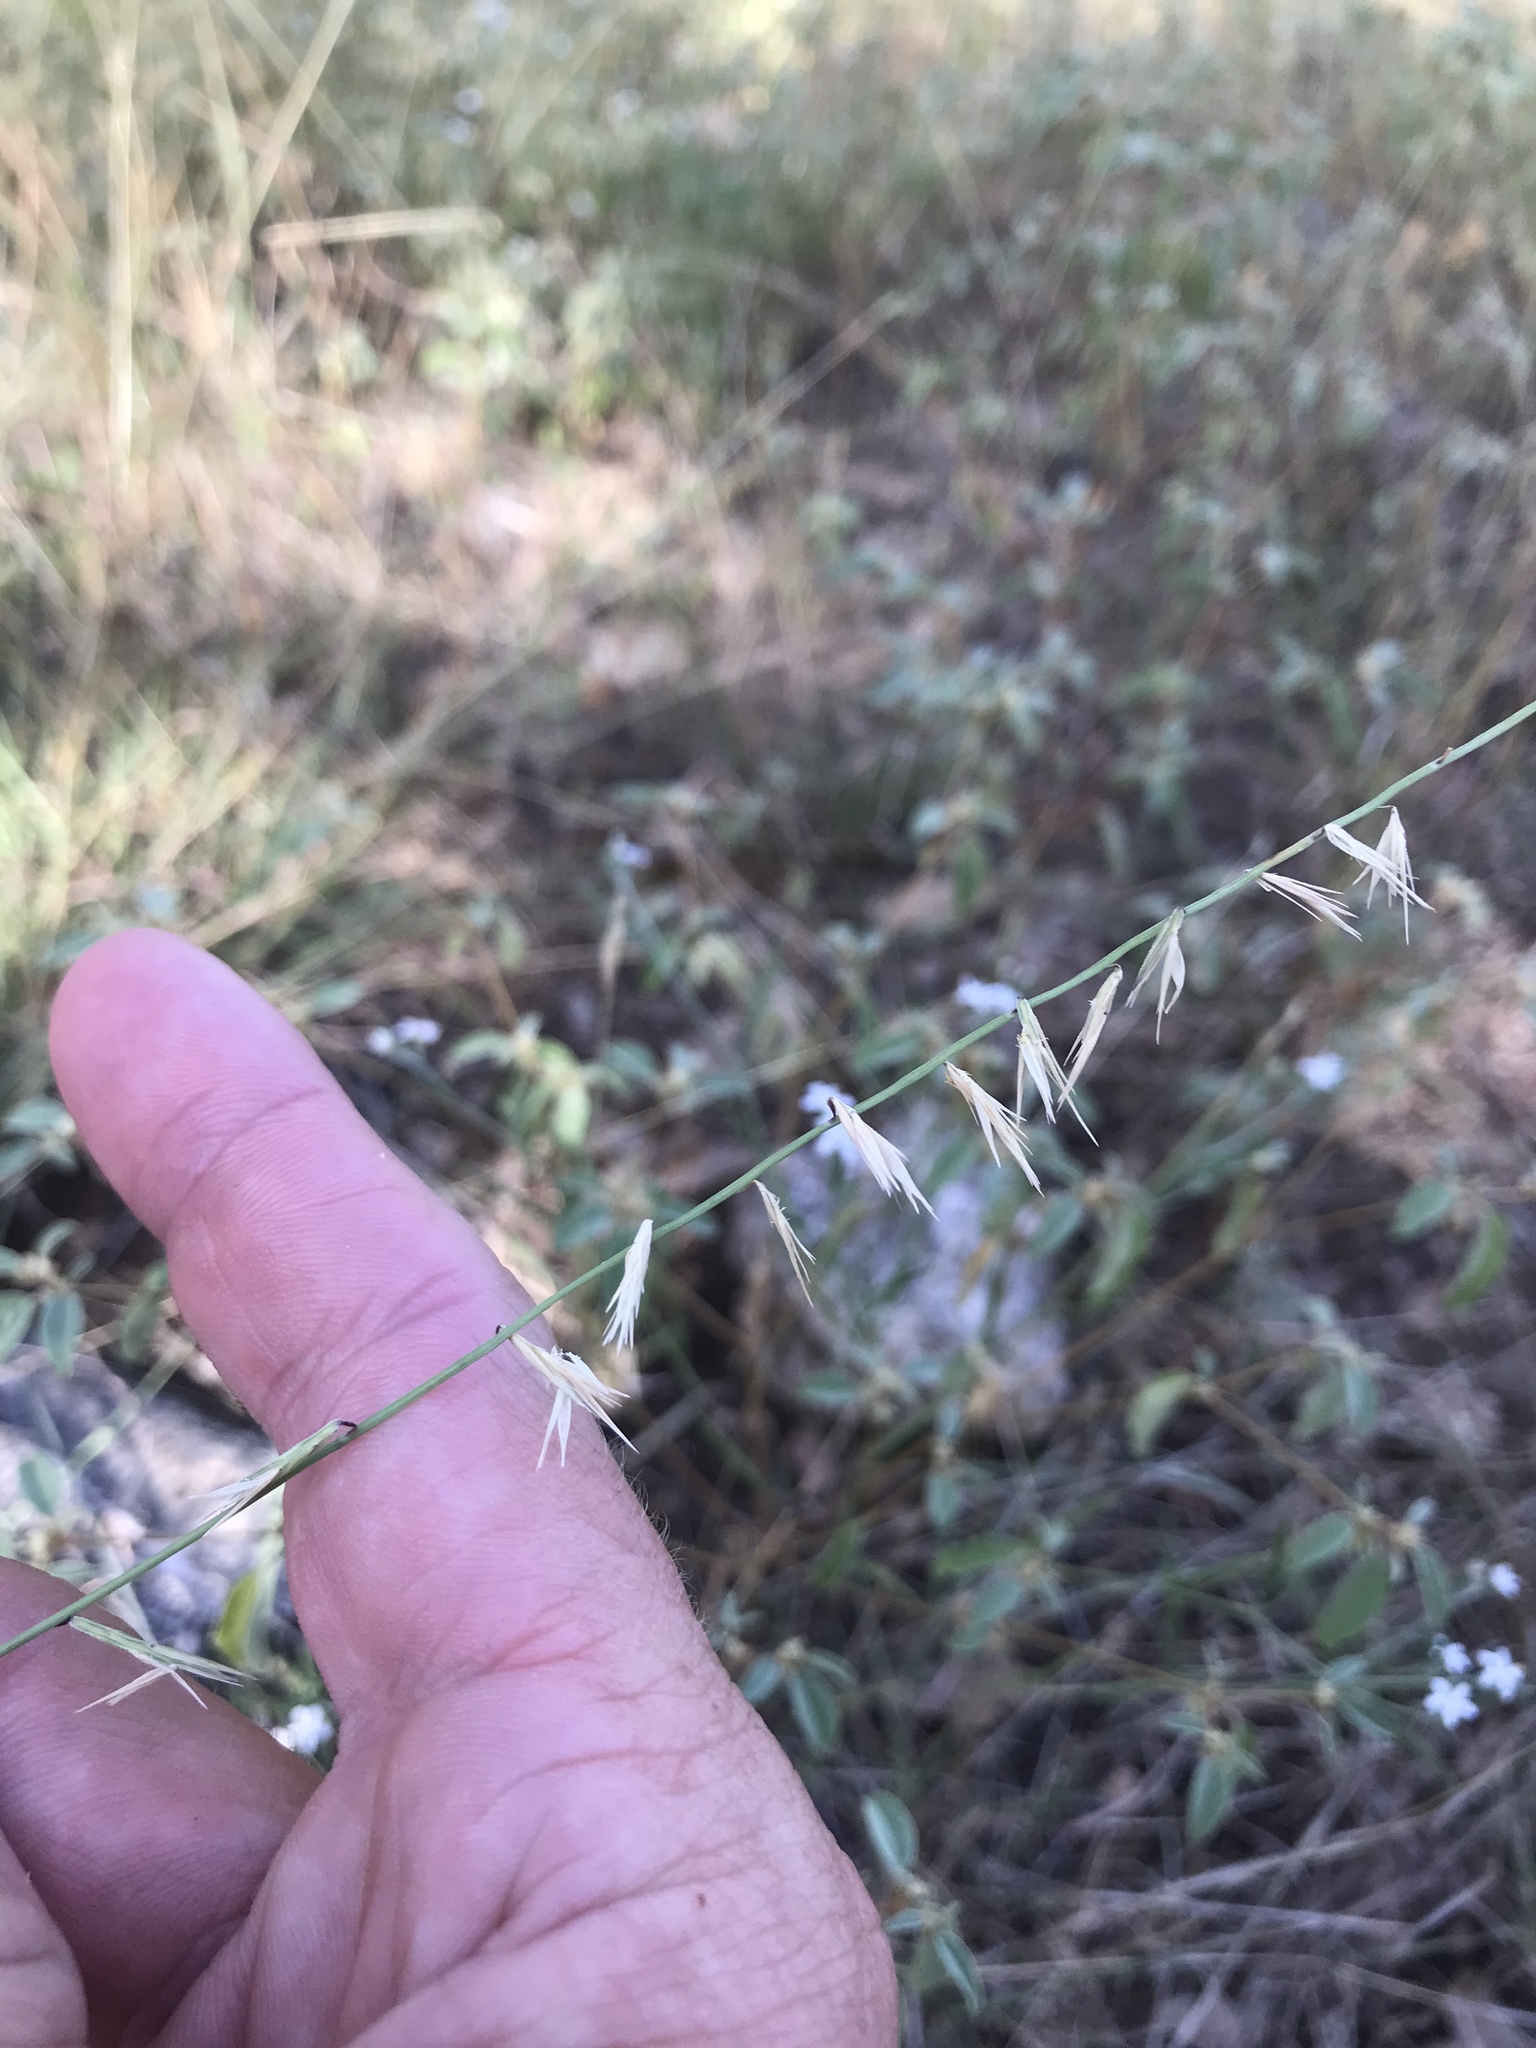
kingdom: Plantae
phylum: Tracheophyta
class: Liliopsida
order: Poales
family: Poaceae
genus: Bouteloua
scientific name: Bouteloua curtipendula
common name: Side-oats grama
